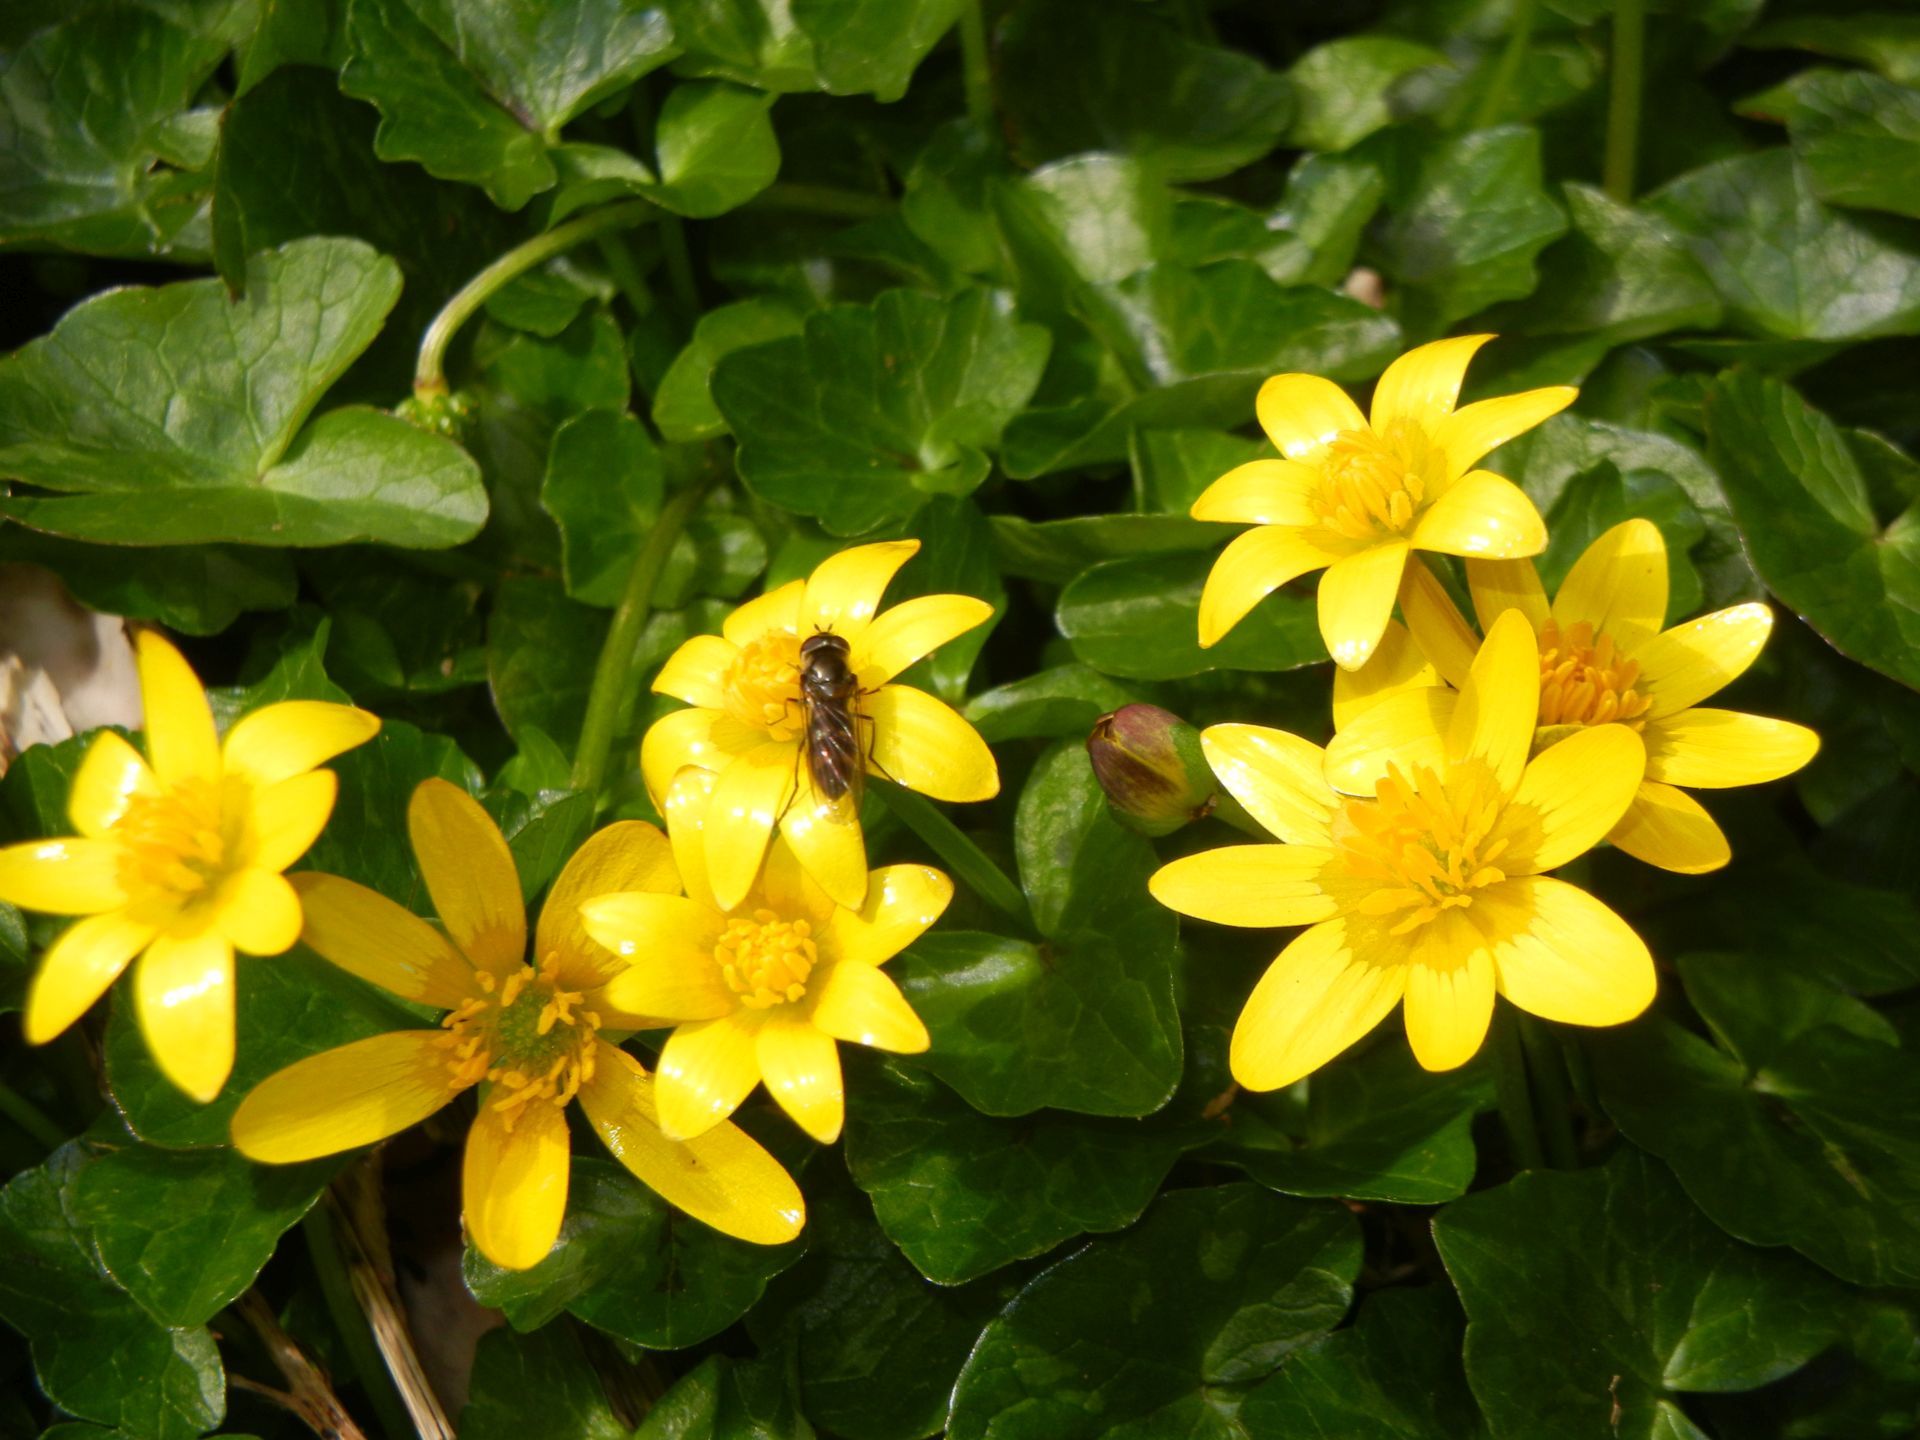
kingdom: Plantae
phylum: Tracheophyta
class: Magnoliopsida
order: Ranunculales
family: Ranunculaceae
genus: Ficaria
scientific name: Ficaria verna
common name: Lesser celandine
